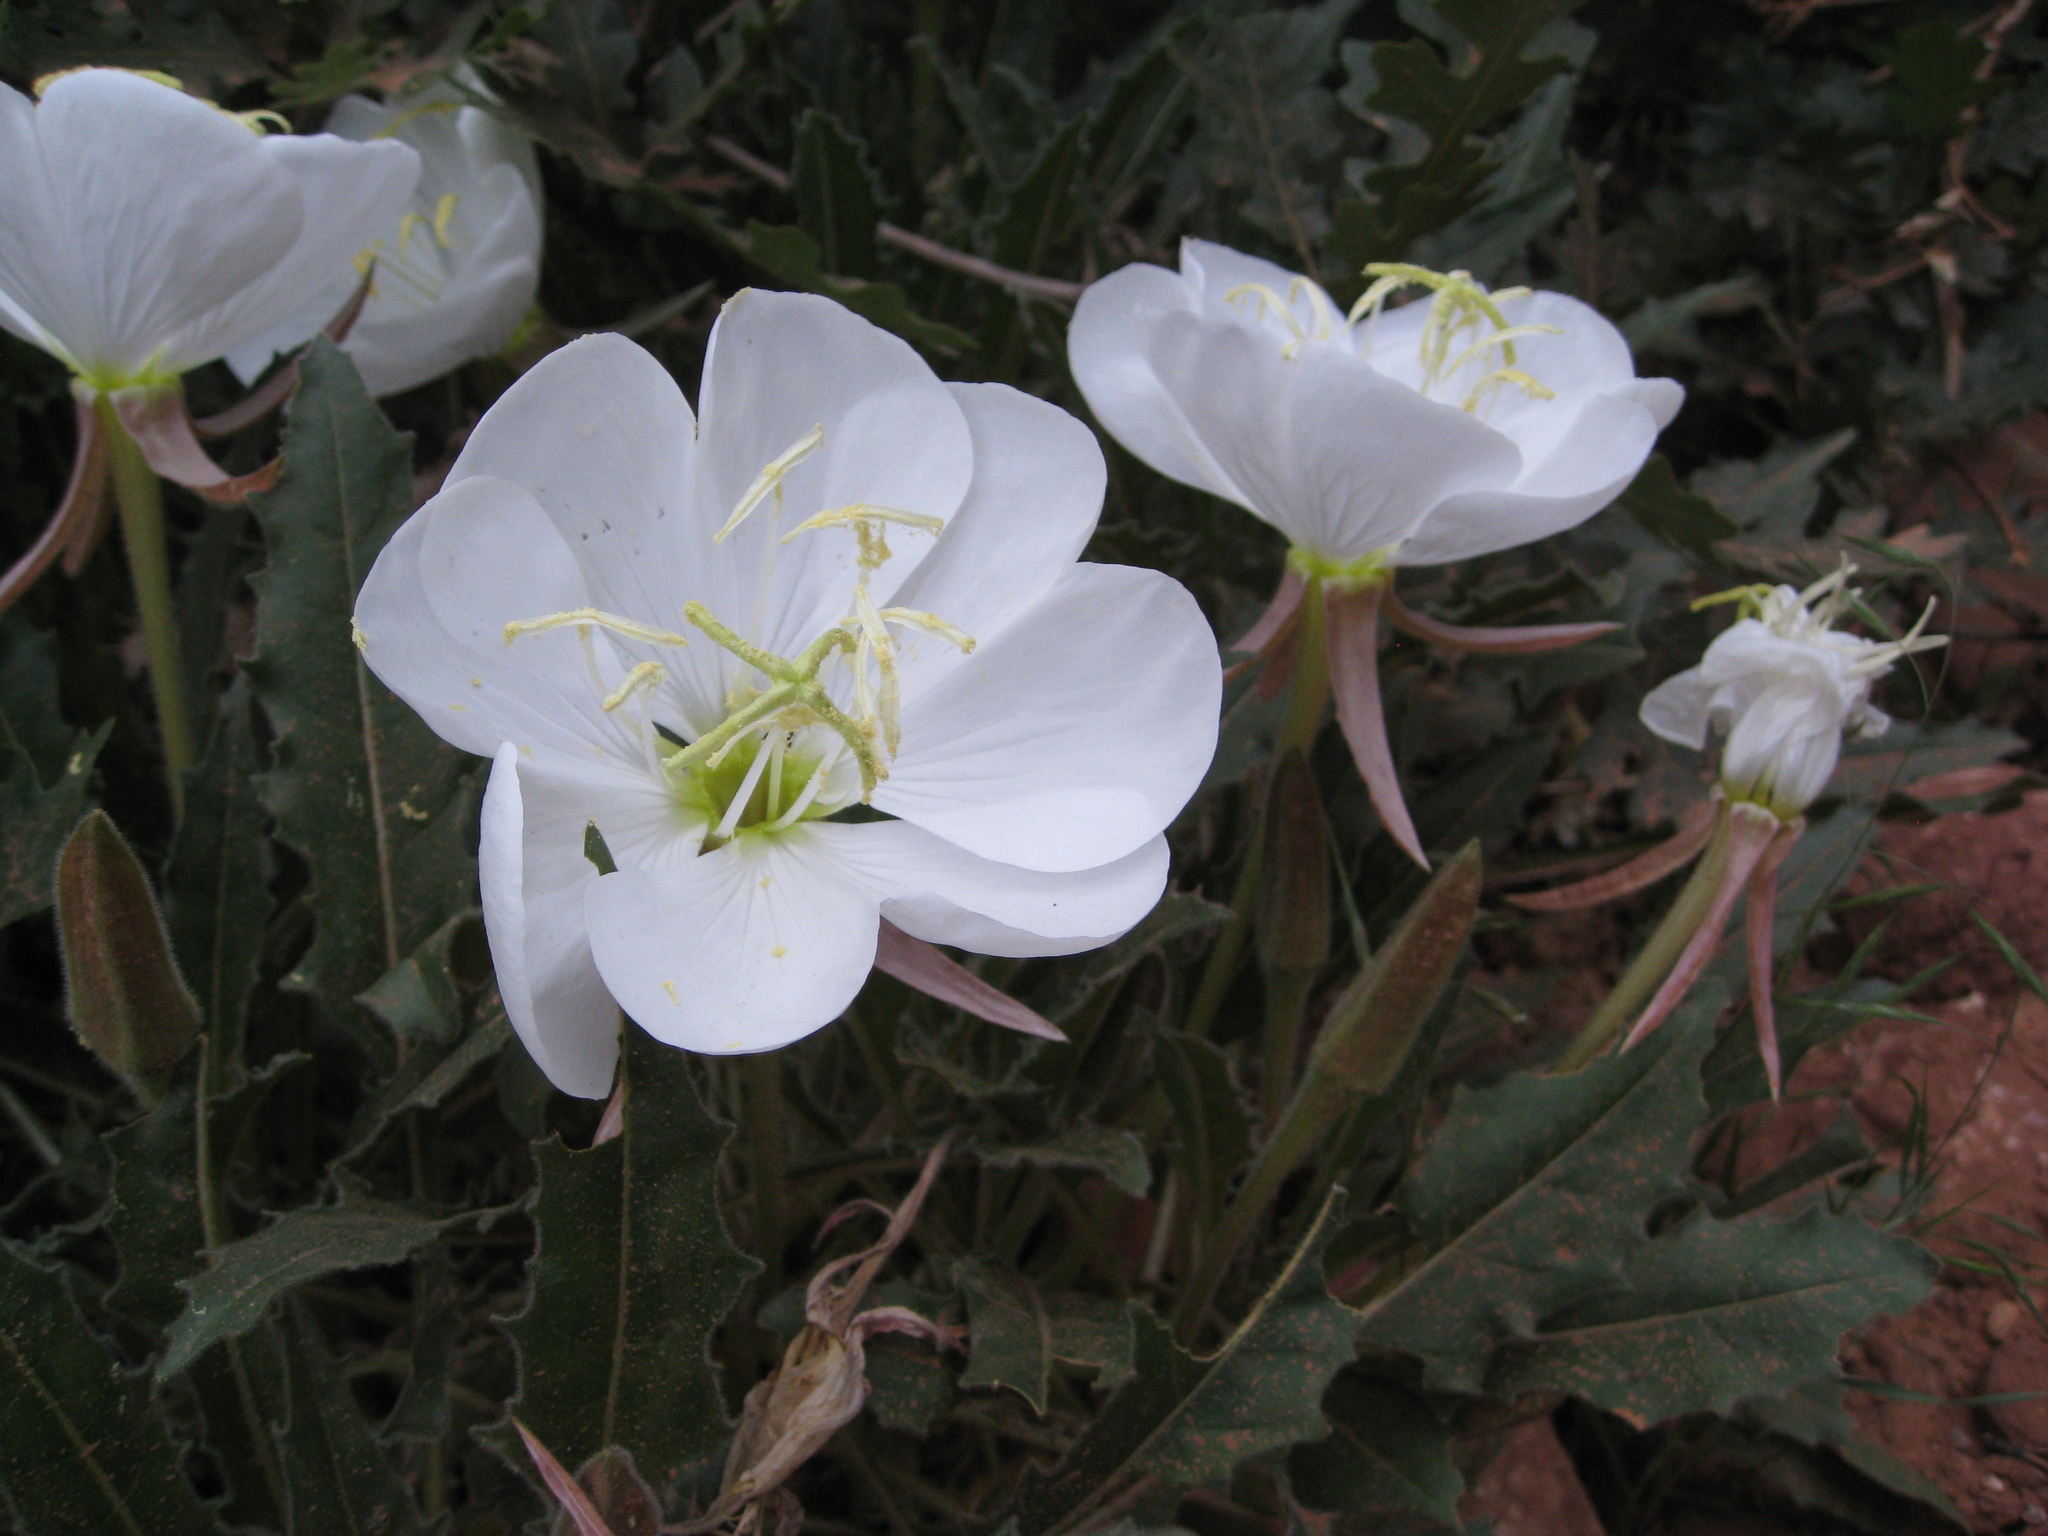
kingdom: Plantae
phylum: Tracheophyta
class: Magnoliopsida
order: Myrtales
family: Onagraceae
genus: Oenothera
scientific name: Oenothera cespitosa
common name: Tufted evening-primrose
